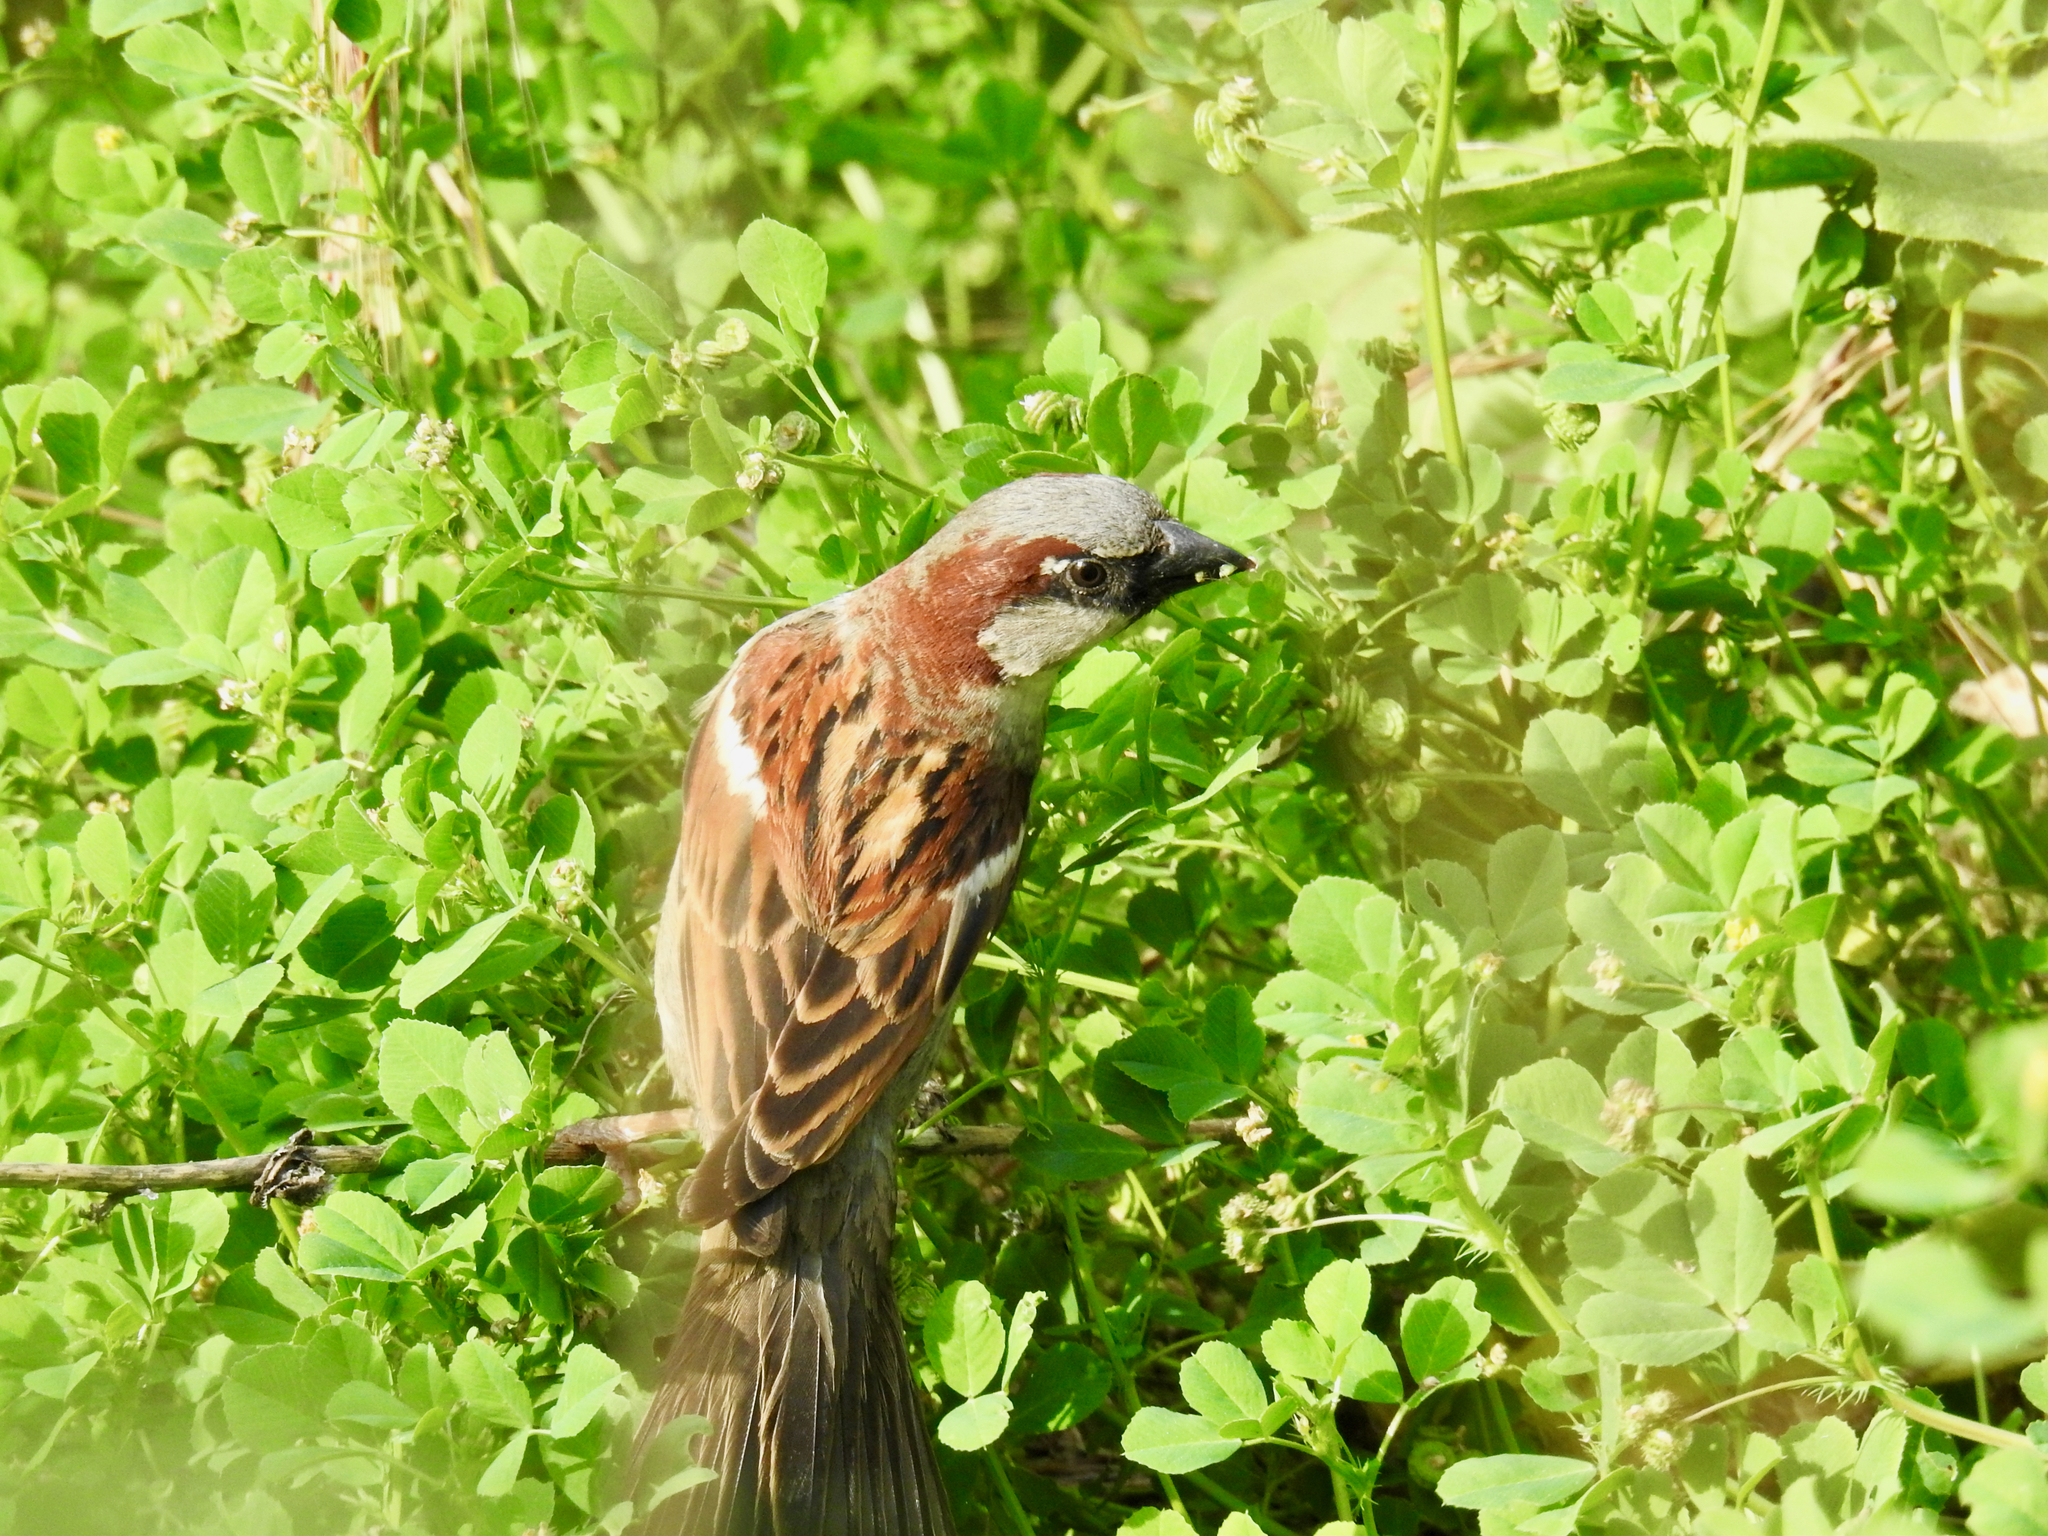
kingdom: Animalia
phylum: Chordata
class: Aves
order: Passeriformes
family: Passeridae
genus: Passer
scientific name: Passer domesticus
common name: House sparrow
